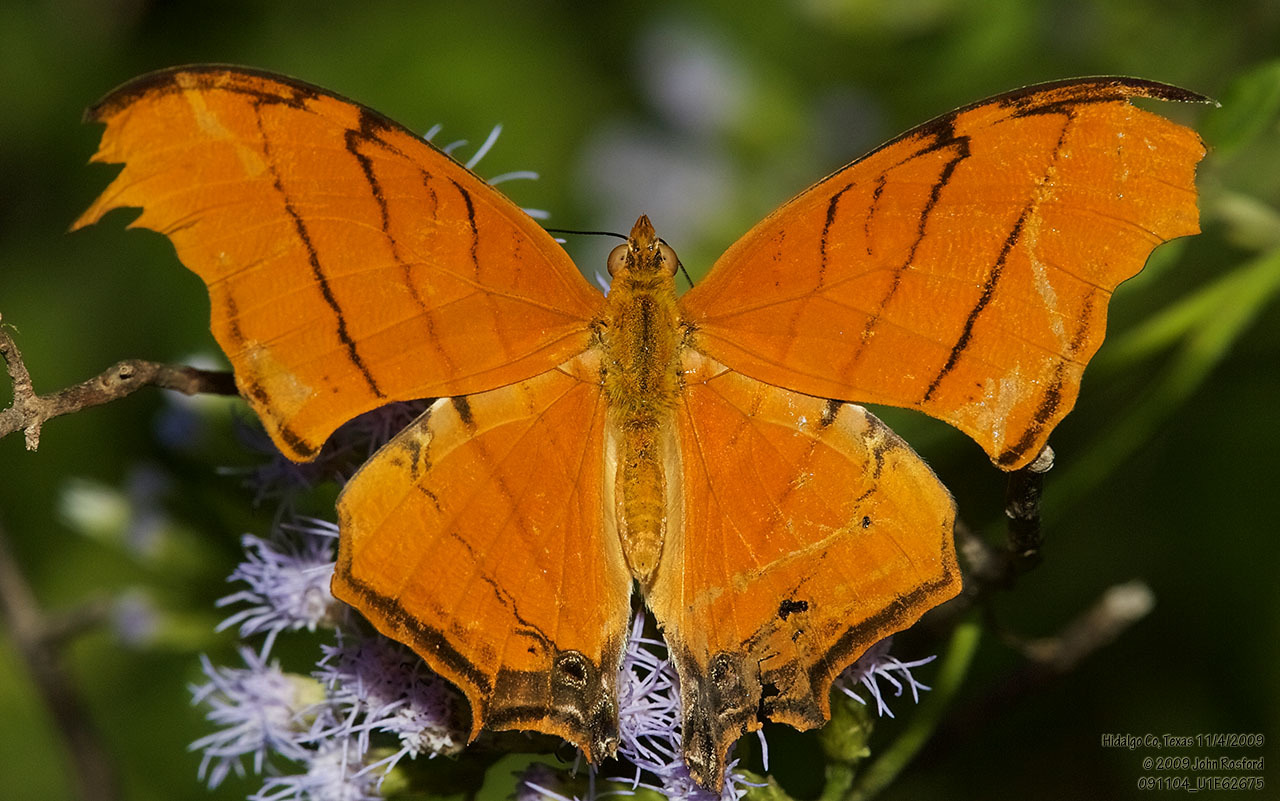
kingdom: Animalia
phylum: Arthropoda
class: Insecta
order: Lepidoptera
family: Nymphalidae
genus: Marpesia
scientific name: Marpesia petreus
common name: Red dagger wing
